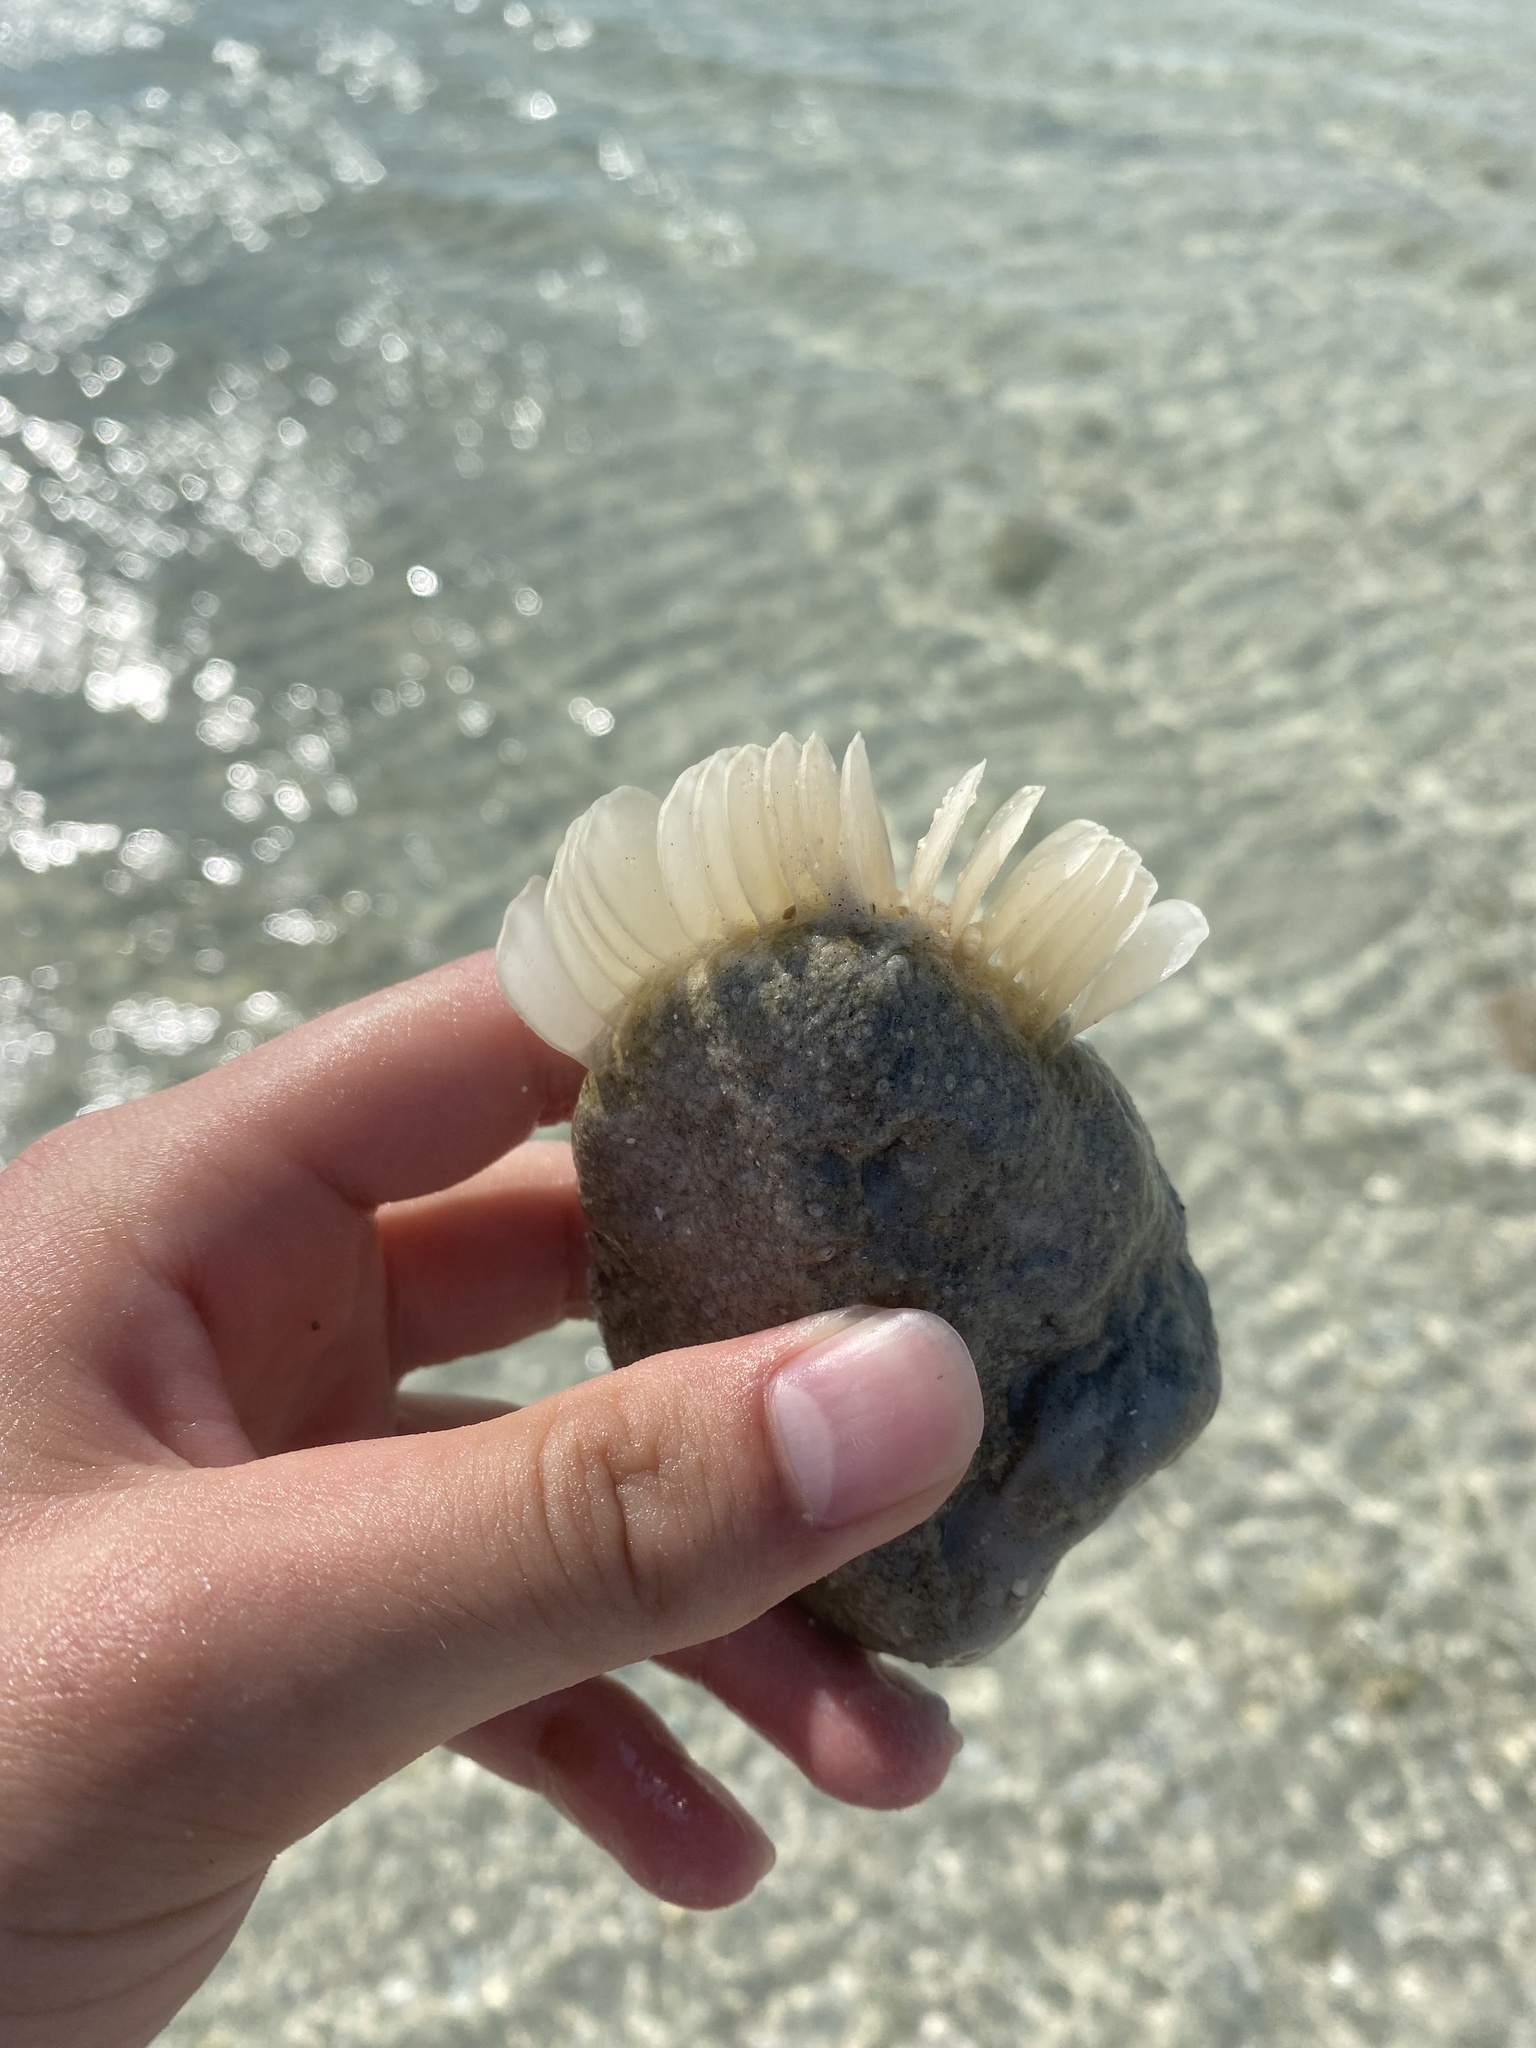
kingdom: Animalia
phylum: Mollusca
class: Gastropoda
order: Neogastropoda
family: Melongenidae
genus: Melongena
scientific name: Melongena corona
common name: American crown conch
